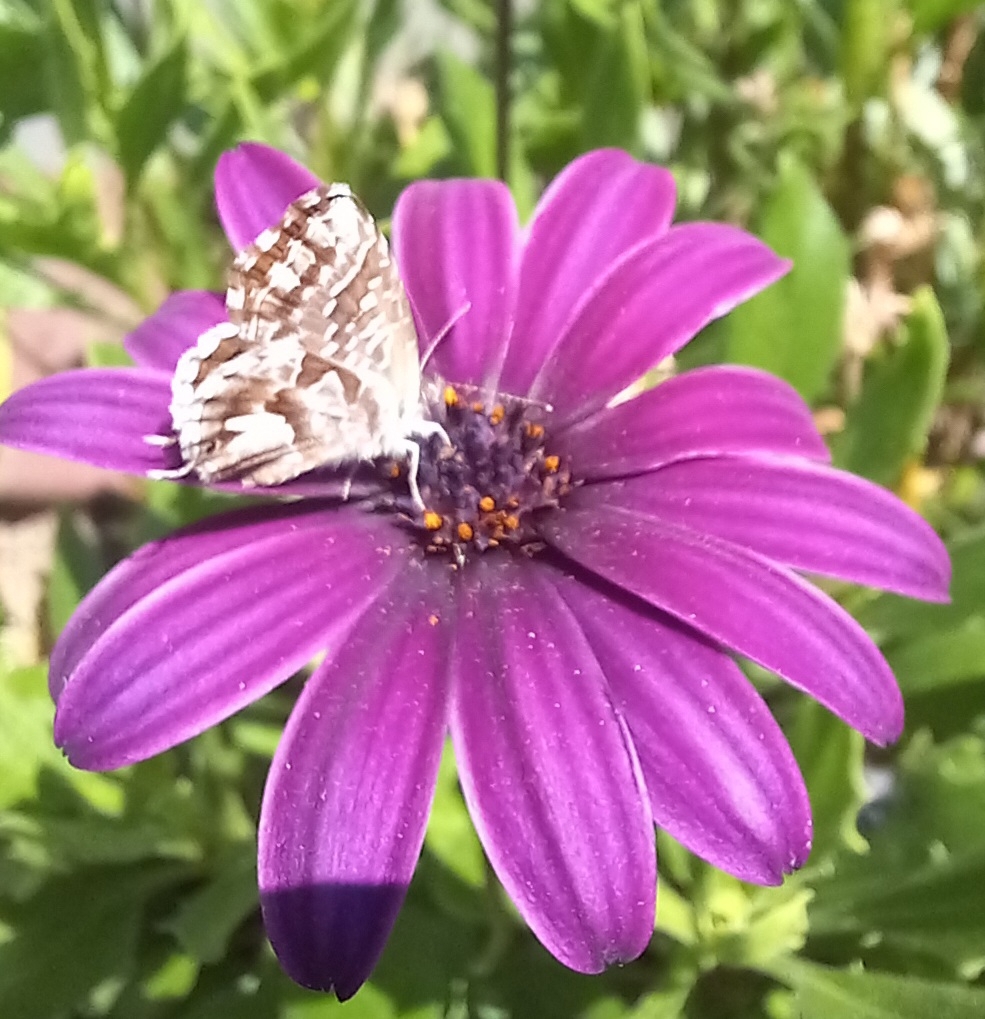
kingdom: Animalia
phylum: Arthropoda
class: Insecta
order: Lepidoptera
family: Lycaenidae
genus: Cacyreus
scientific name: Cacyreus marshalli
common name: Geranium bronze
